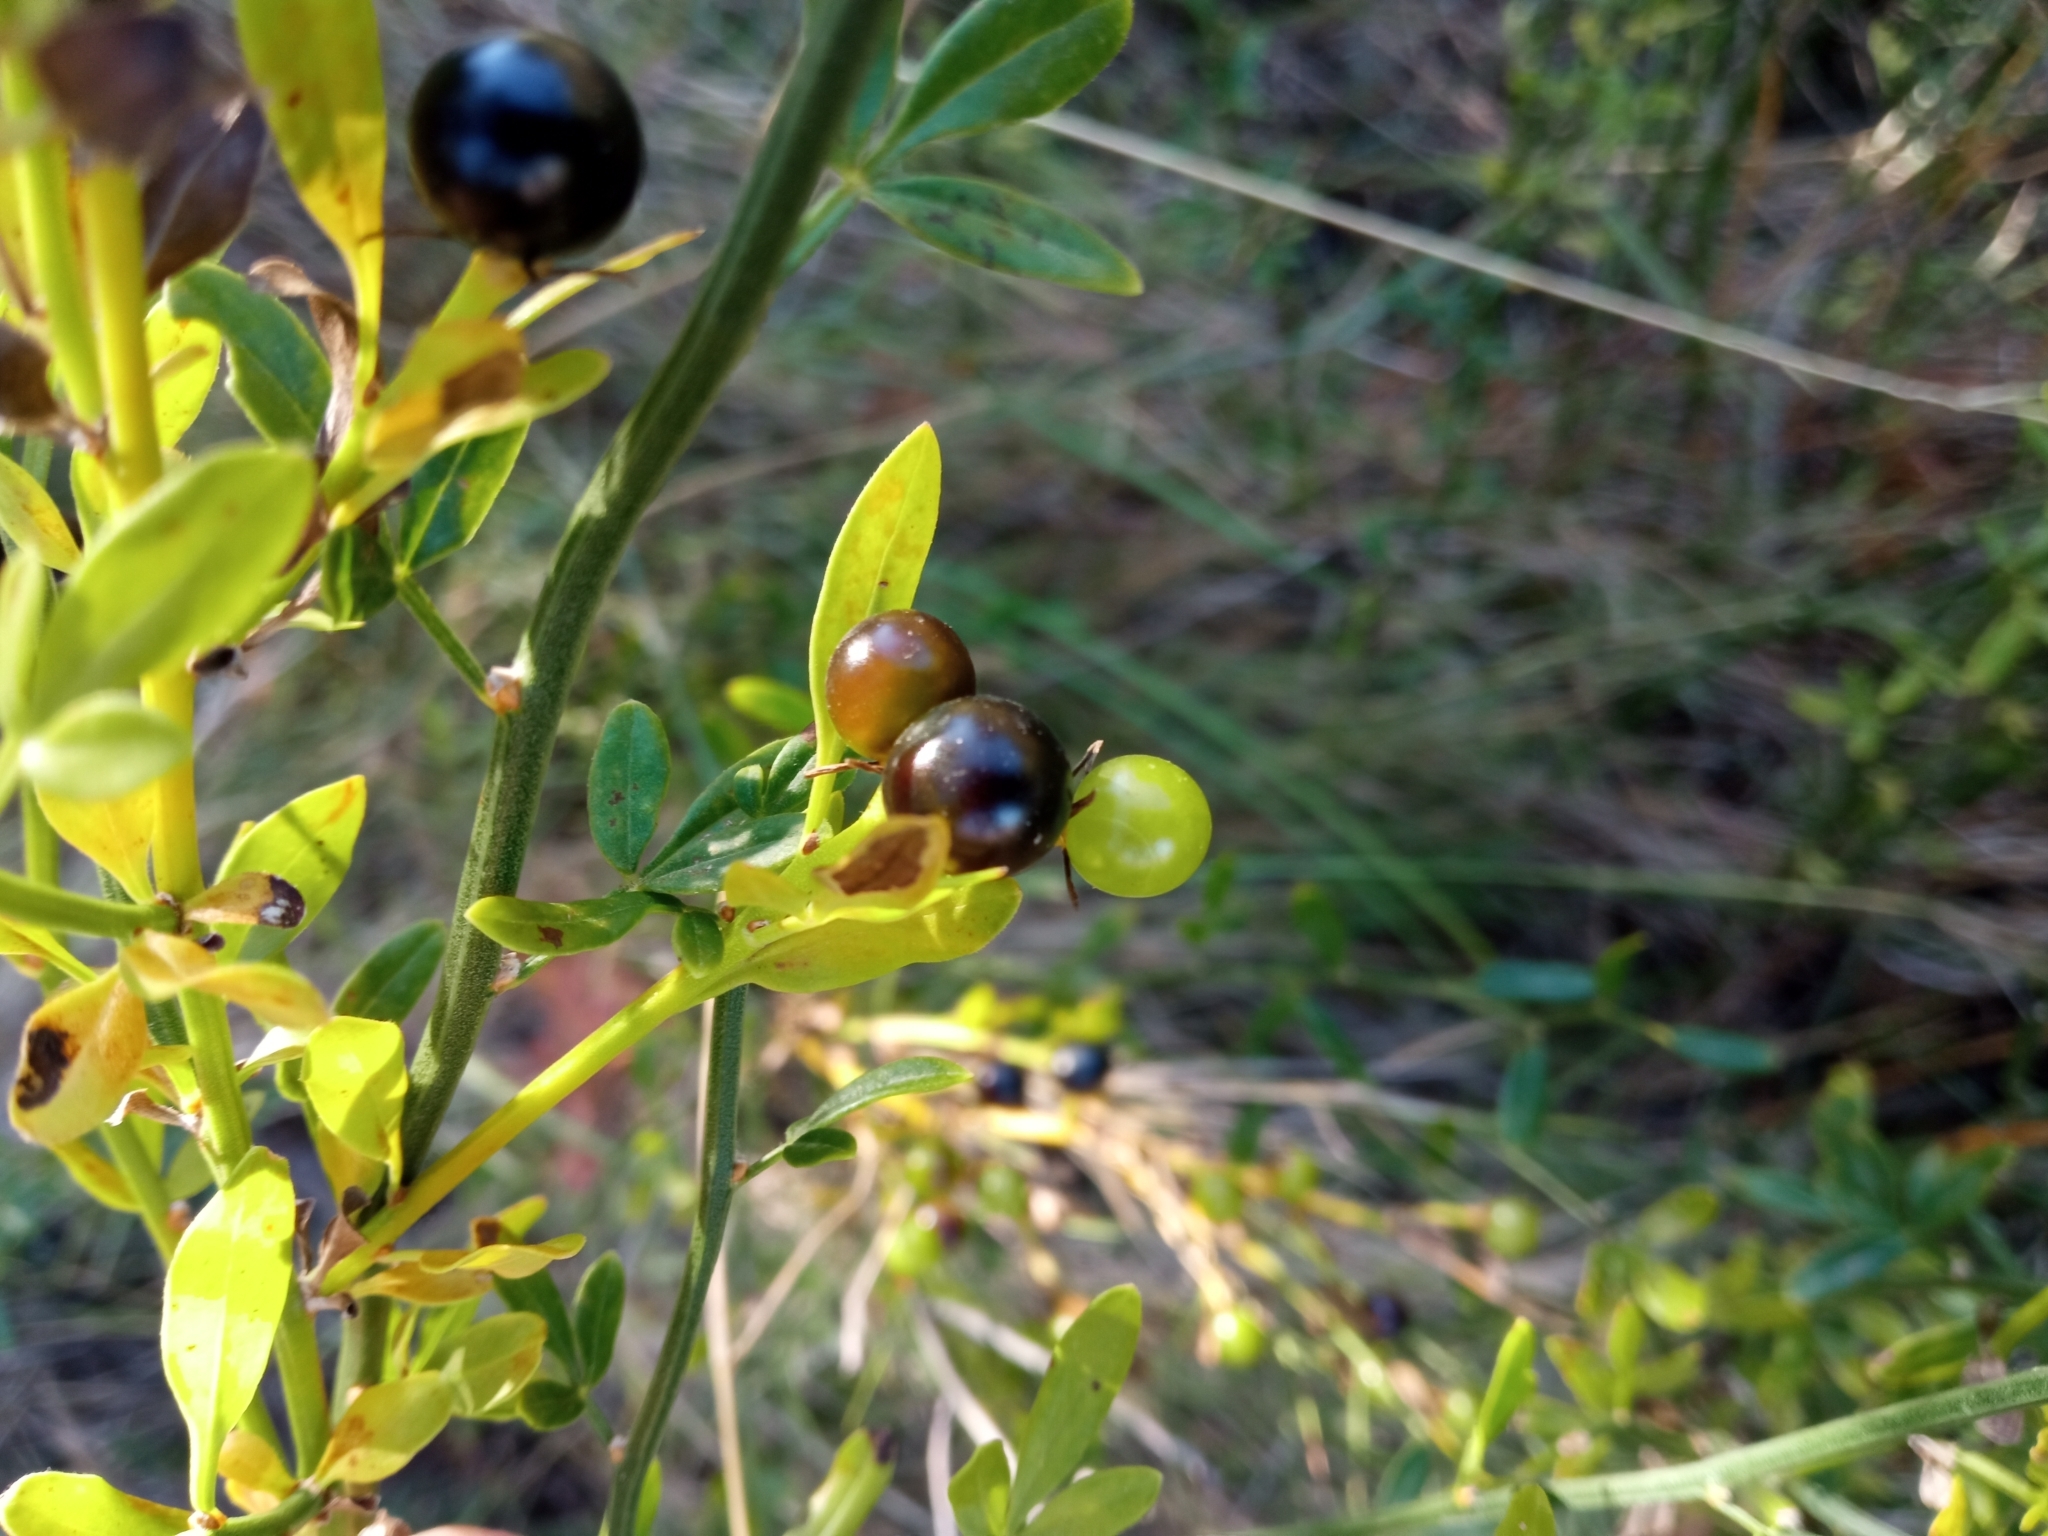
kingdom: Plantae
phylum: Tracheophyta
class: Magnoliopsida
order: Lamiales
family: Oleaceae
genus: Chrysojasminum
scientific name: Chrysojasminum fruticans
